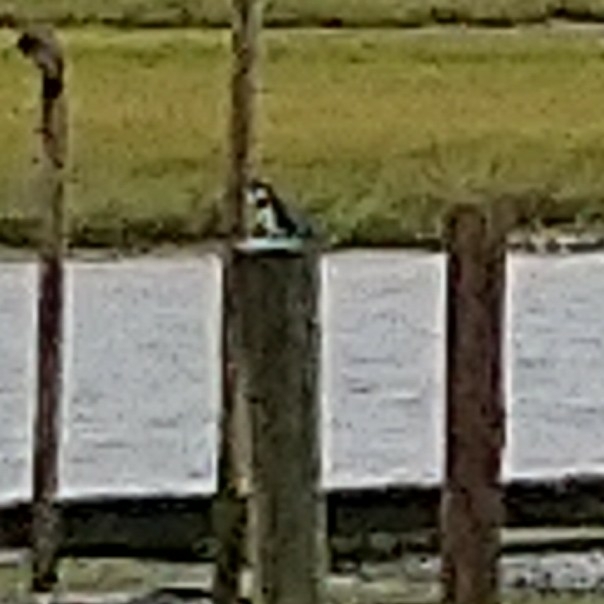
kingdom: Animalia
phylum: Chordata
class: Aves
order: Coraciiformes
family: Alcedinidae
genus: Ceryle
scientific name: Ceryle rudis
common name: Pied kingfisher
